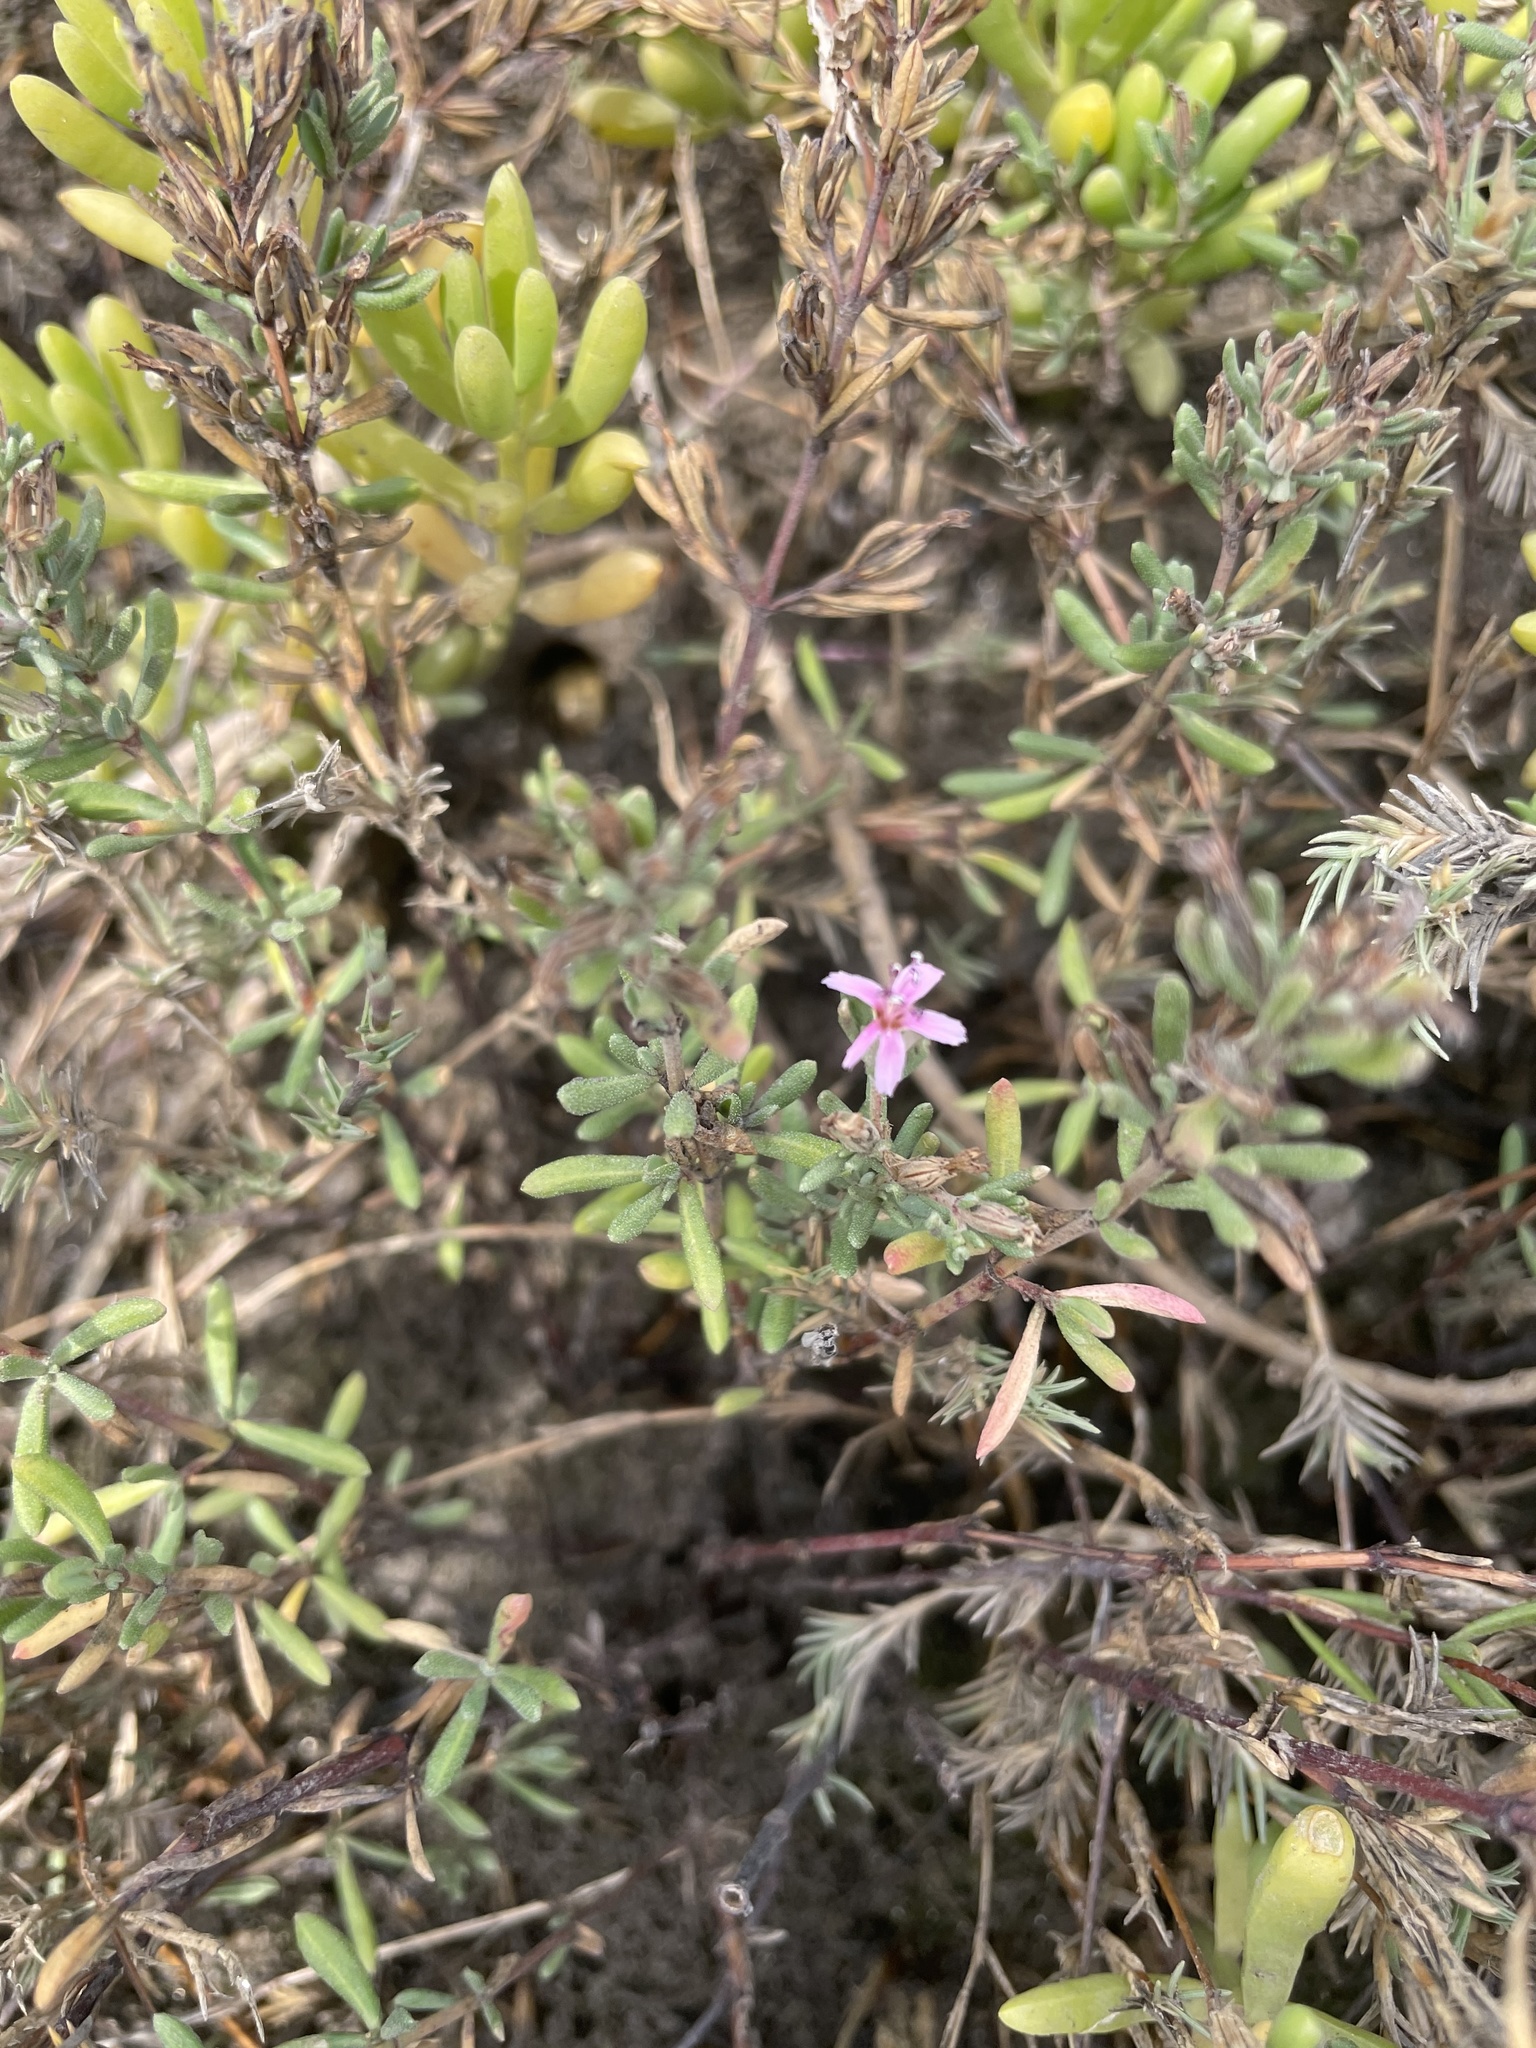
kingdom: Plantae
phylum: Tracheophyta
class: Magnoliopsida
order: Caryophyllales
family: Frankeniaceae
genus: Frankenia
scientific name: Frankenia salina
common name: Alkali seaheath
